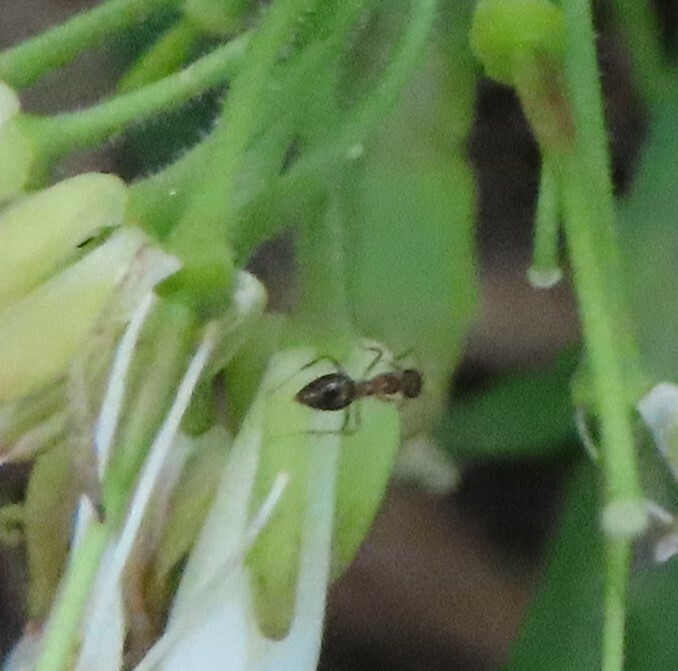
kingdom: Animalia
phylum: Arthropoda
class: Insecta
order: Hymenoptera
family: Formicidae
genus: Prenolepis
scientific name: Prenolepis imparis
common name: Small honey ant
